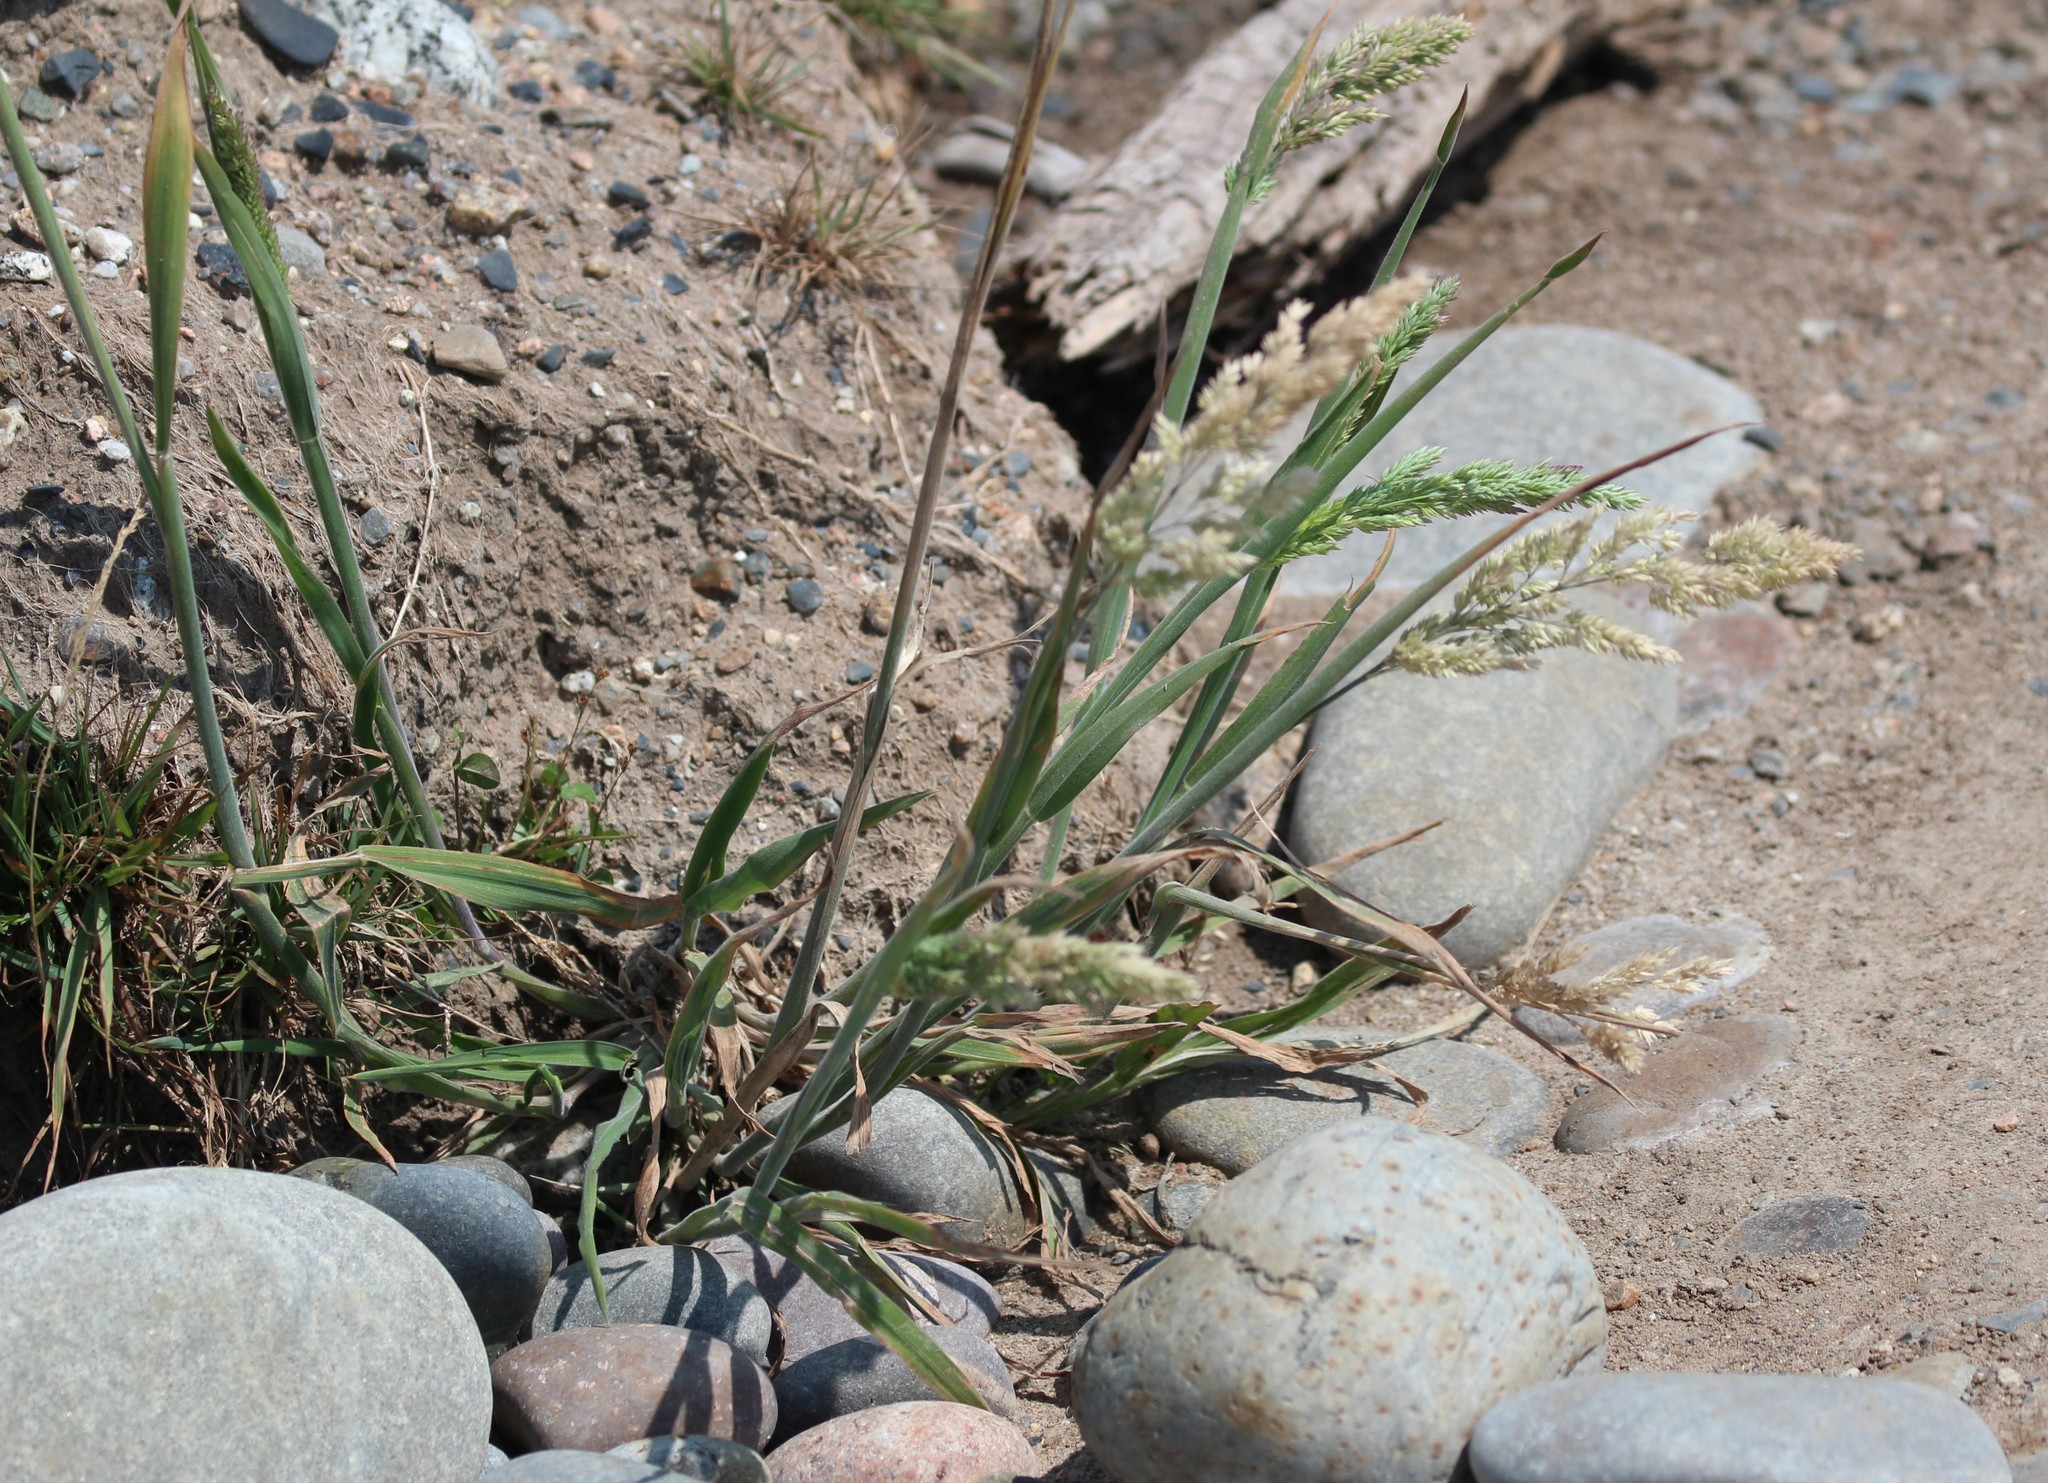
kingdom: Plantae
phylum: Tracheophyta
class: Liliopsida
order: Poales
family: Poaceae
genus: Holcus
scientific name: Holcus lanatus
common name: Yorkshire-fog
